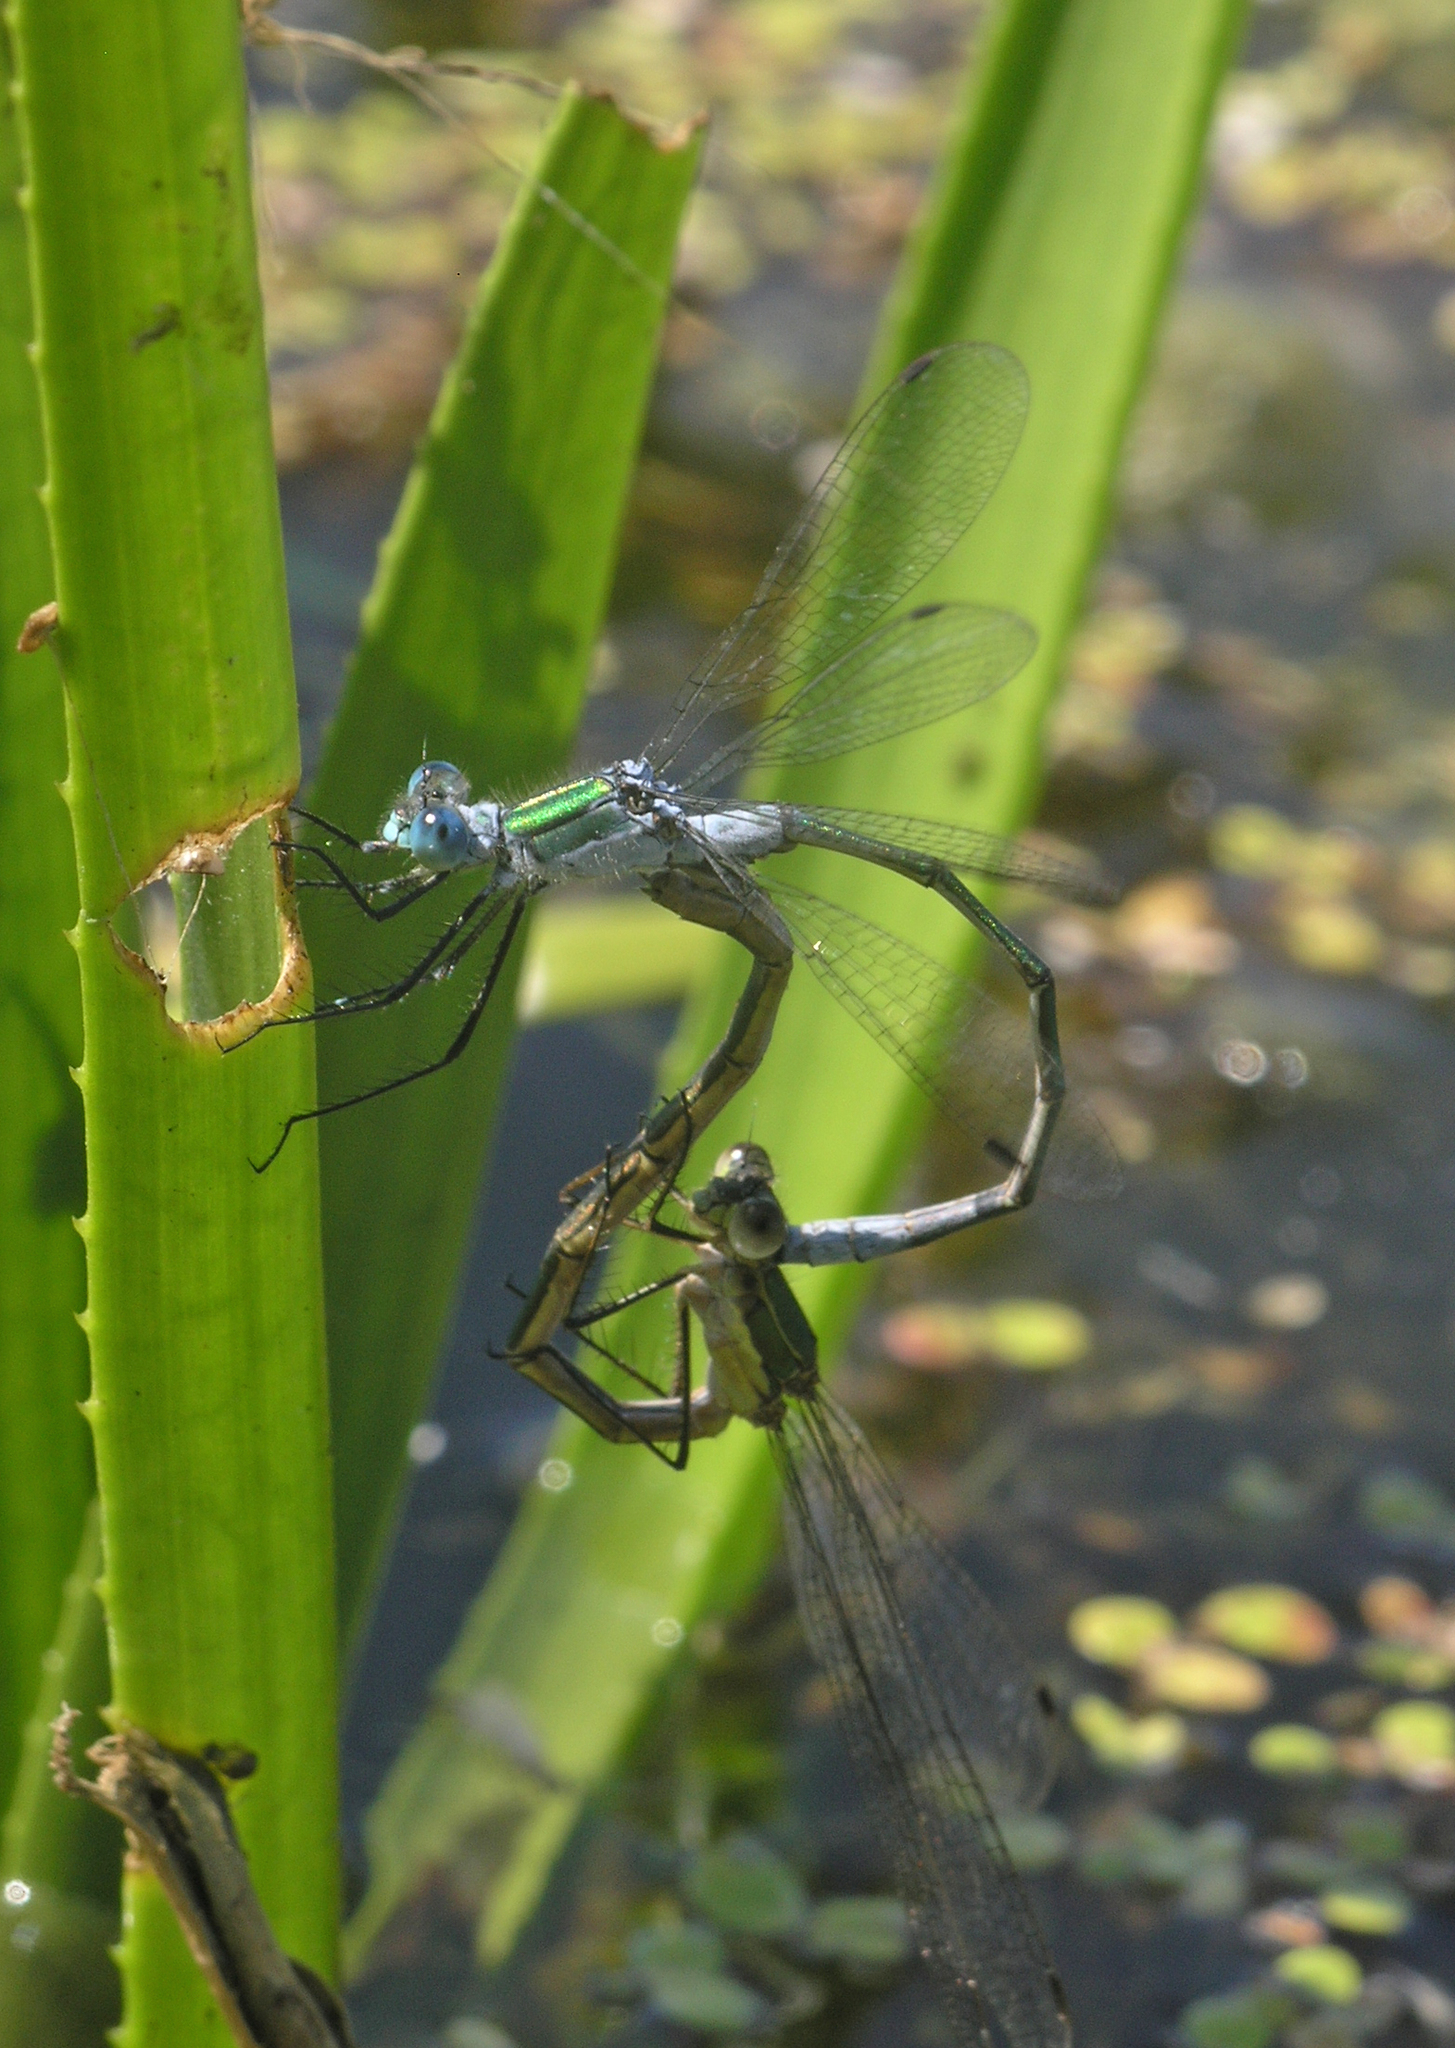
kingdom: Animalia
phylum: Arthropoda
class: Insecta
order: Odonata
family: Lestidae
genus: Lestes
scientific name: Lestes sponsa
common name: Common spreadwing
